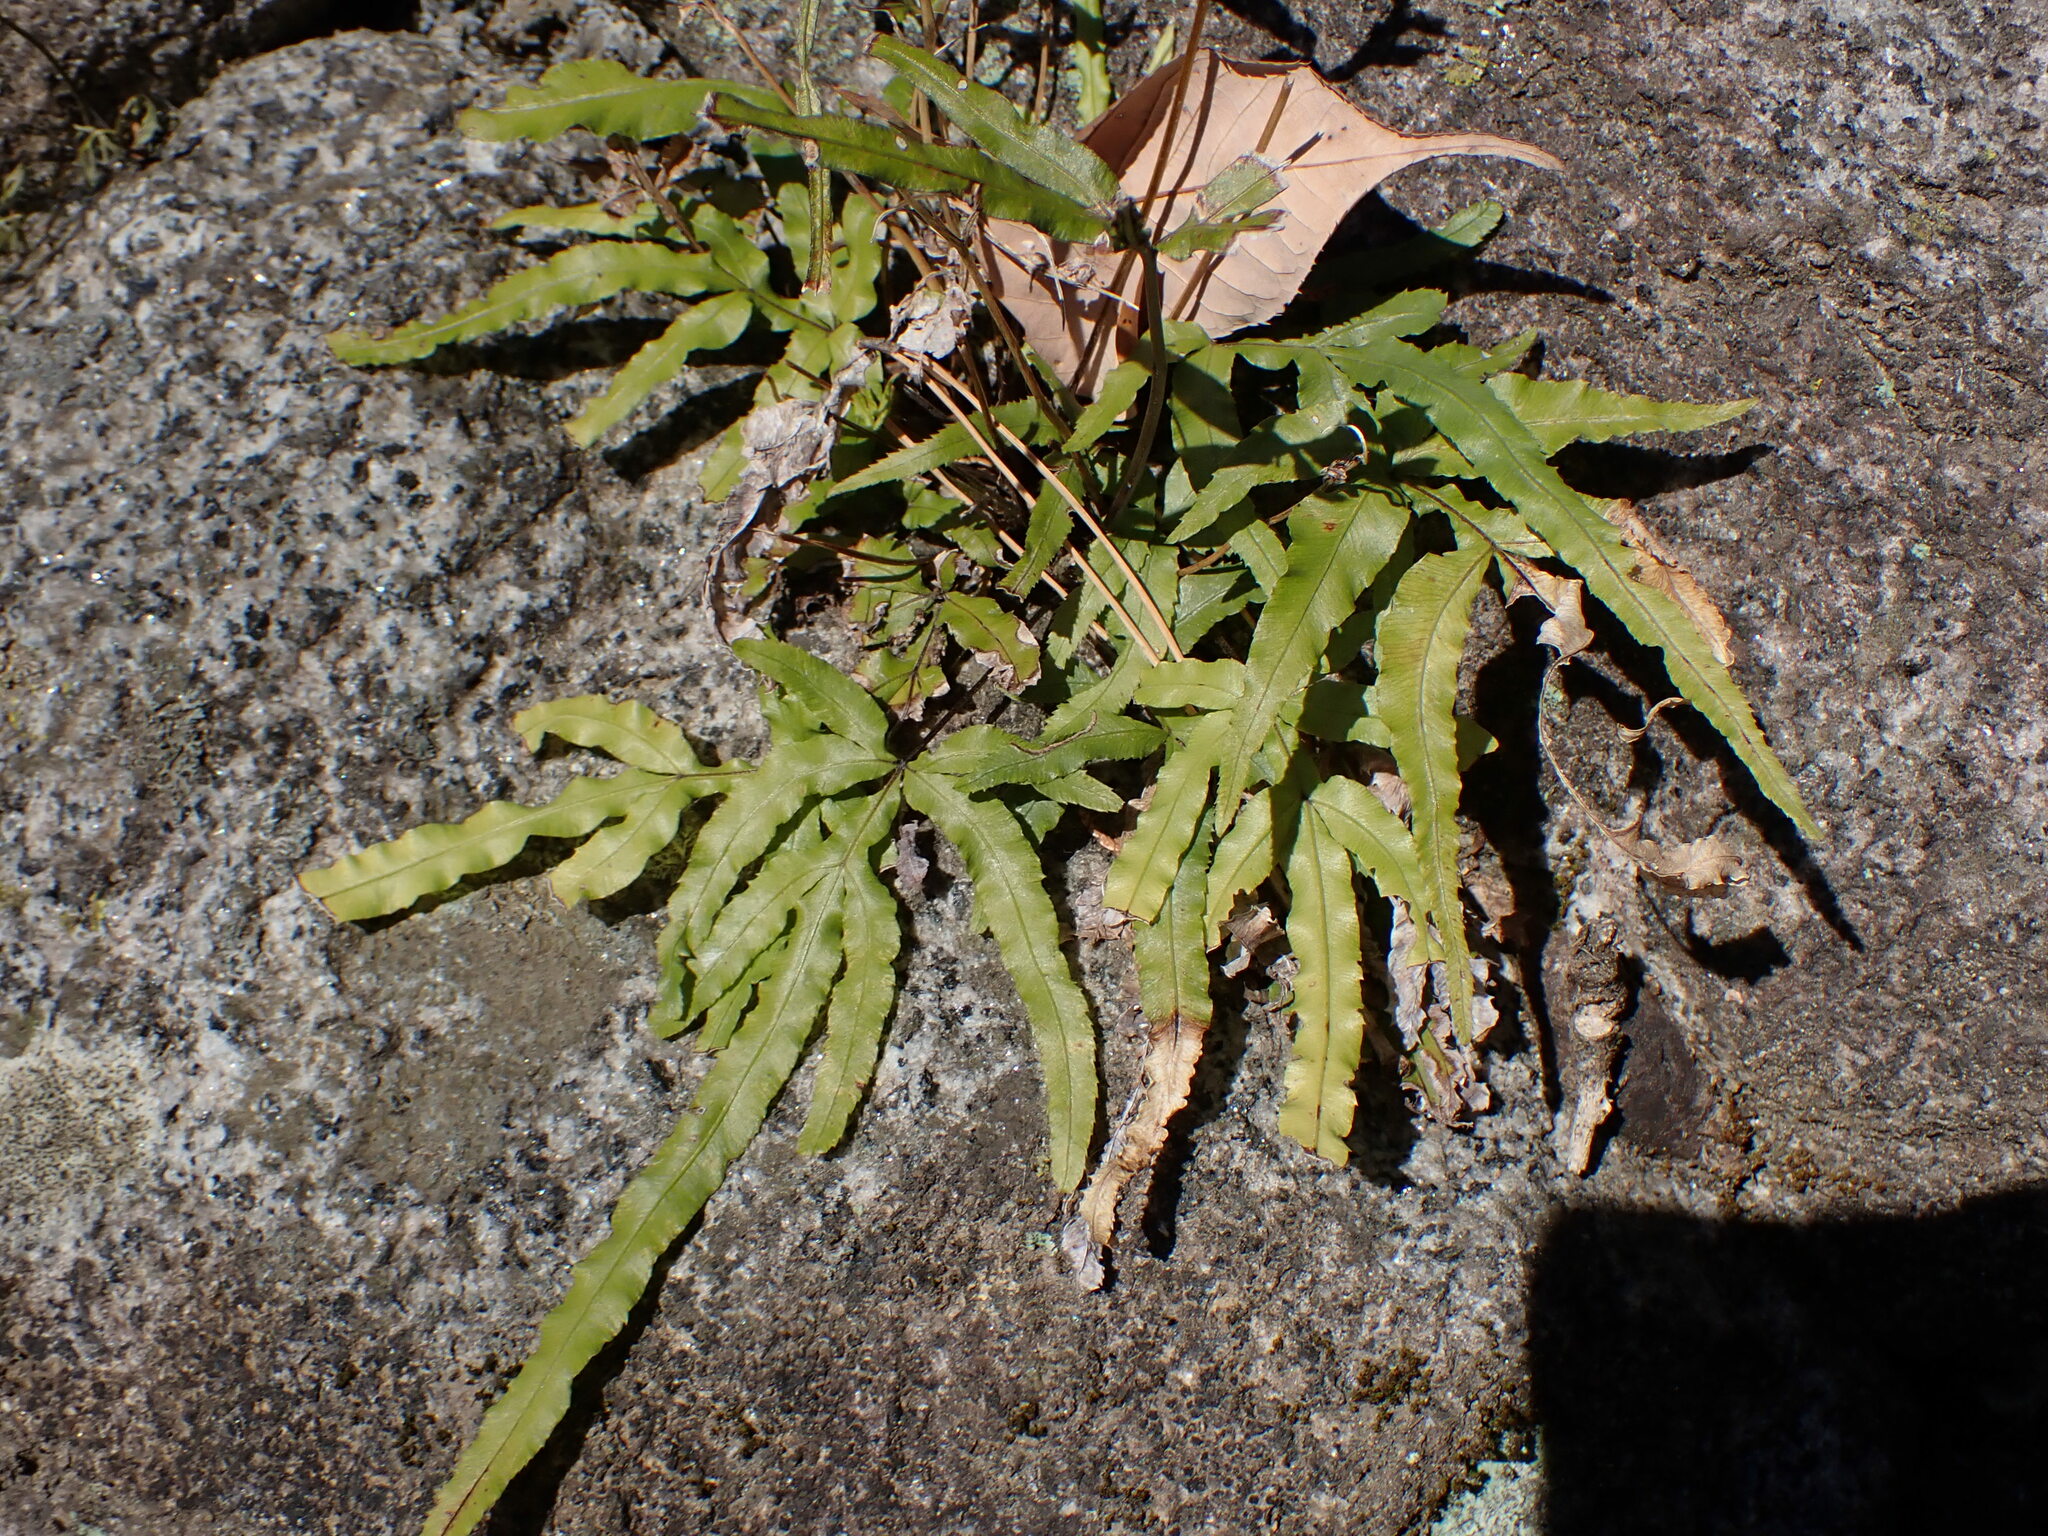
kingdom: Plantae
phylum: Tracheophyta
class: Polypodiopsida
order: Polypodiales
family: Pteridaceae
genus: Pteris
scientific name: Pteris multifida
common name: Spider brake
